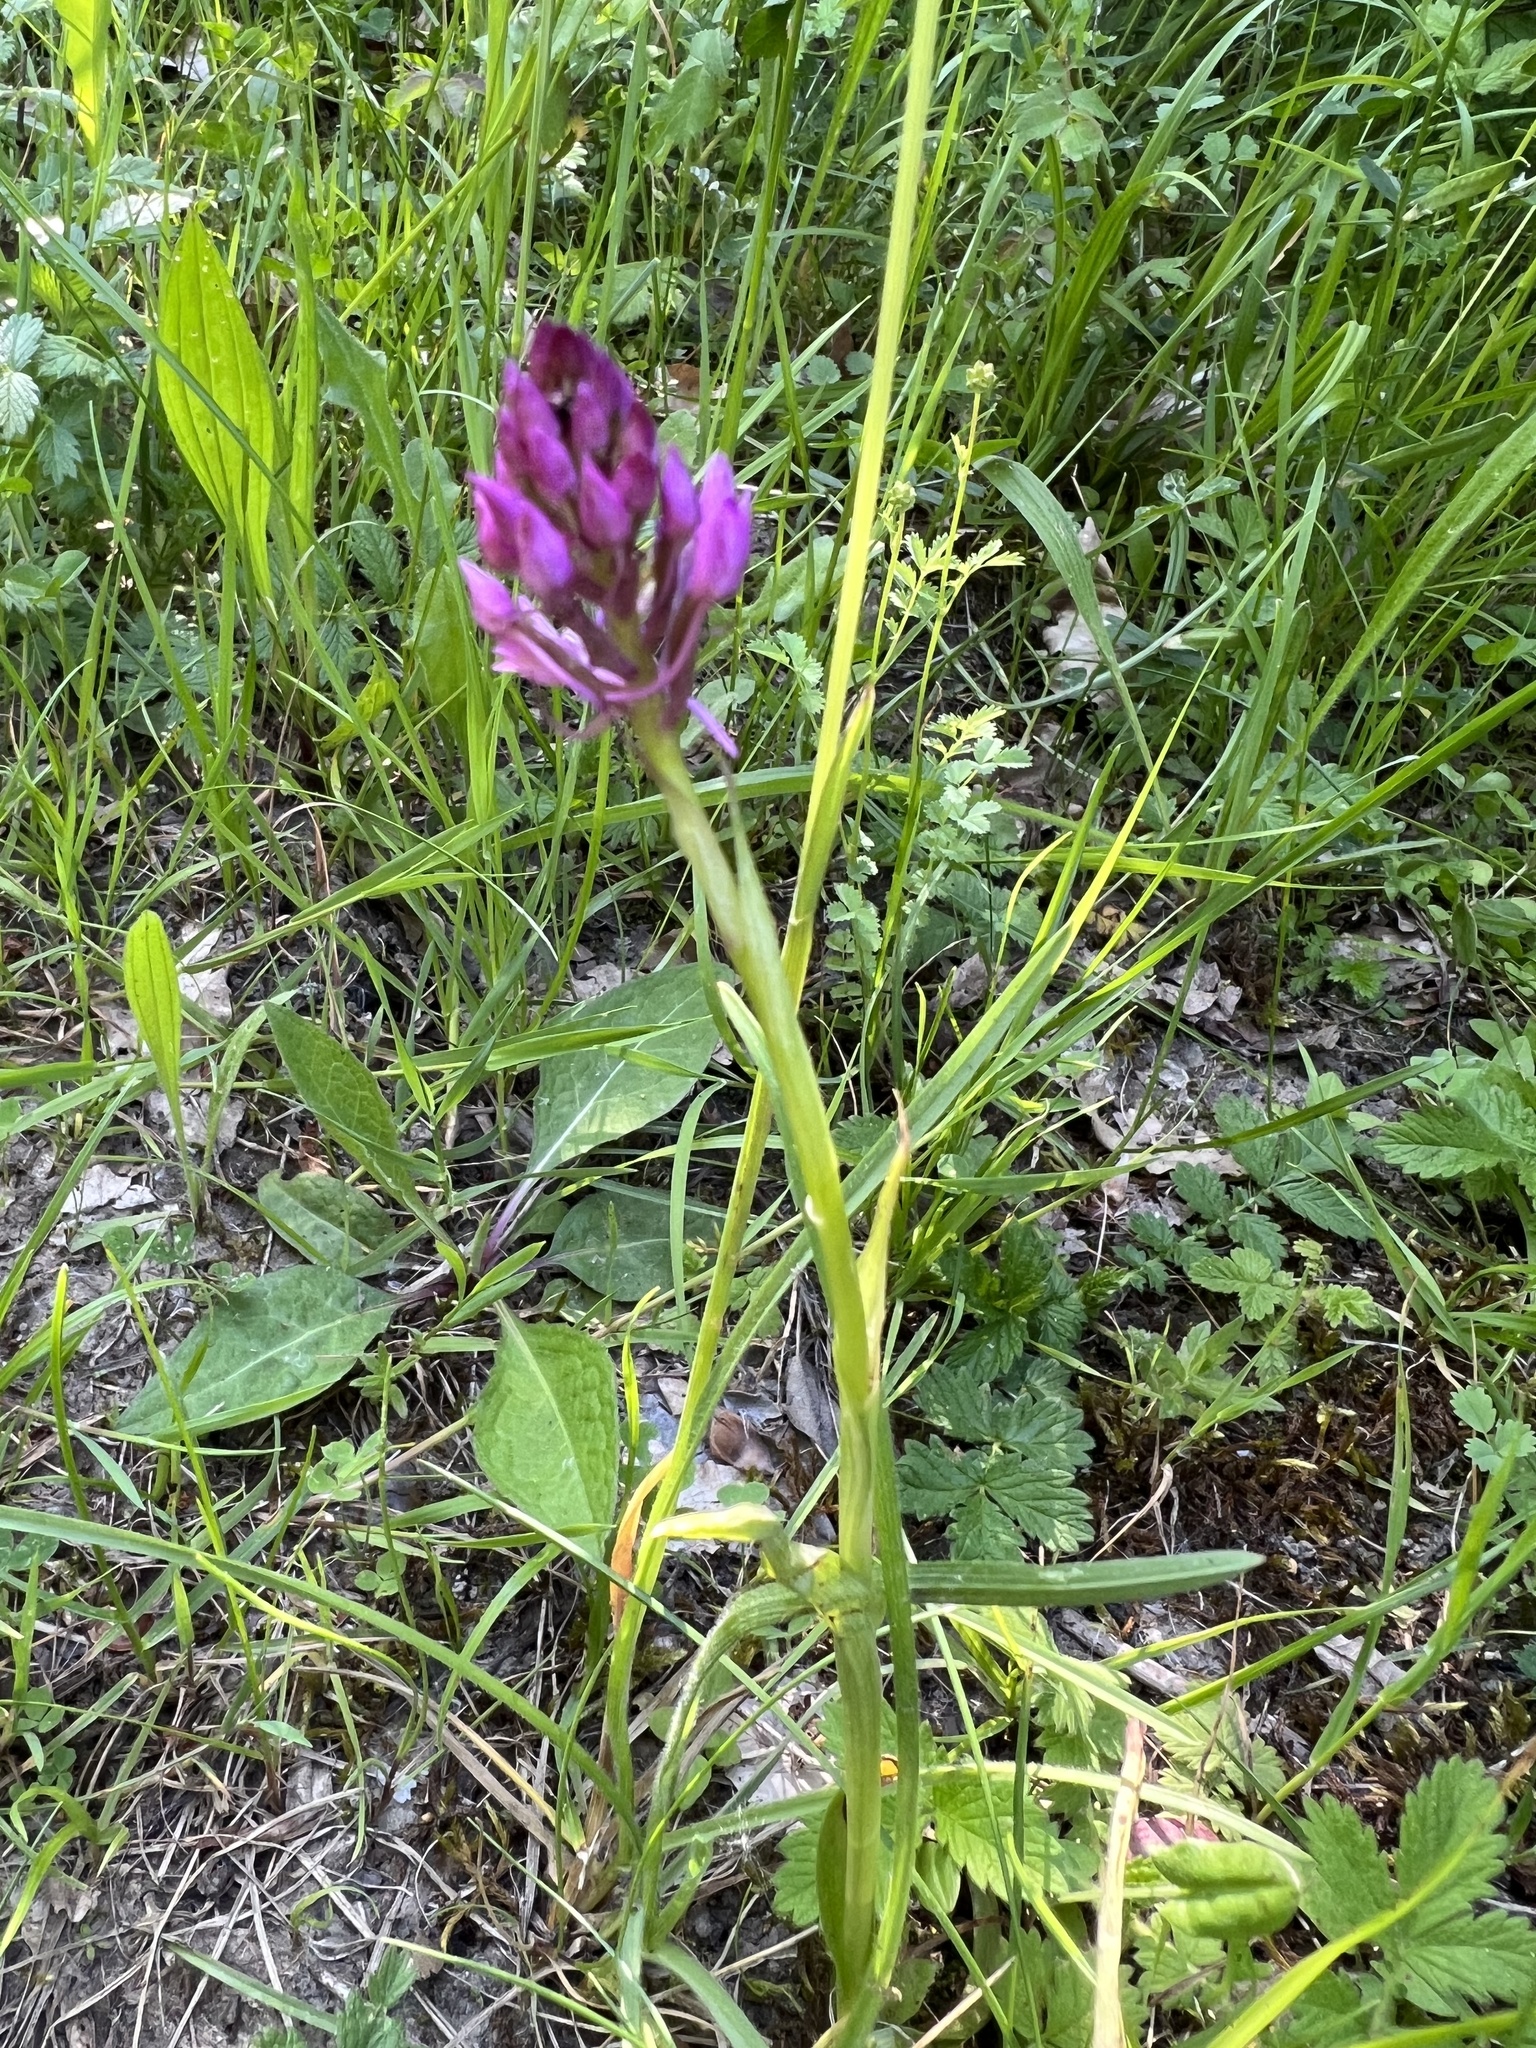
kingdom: Plantae
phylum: Tracheophyta
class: Liliopsida
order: Asparagales
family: Orchidaceae
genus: Anacamptis
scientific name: Anacamptis pyramidalis
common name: Pyramidal orchid
